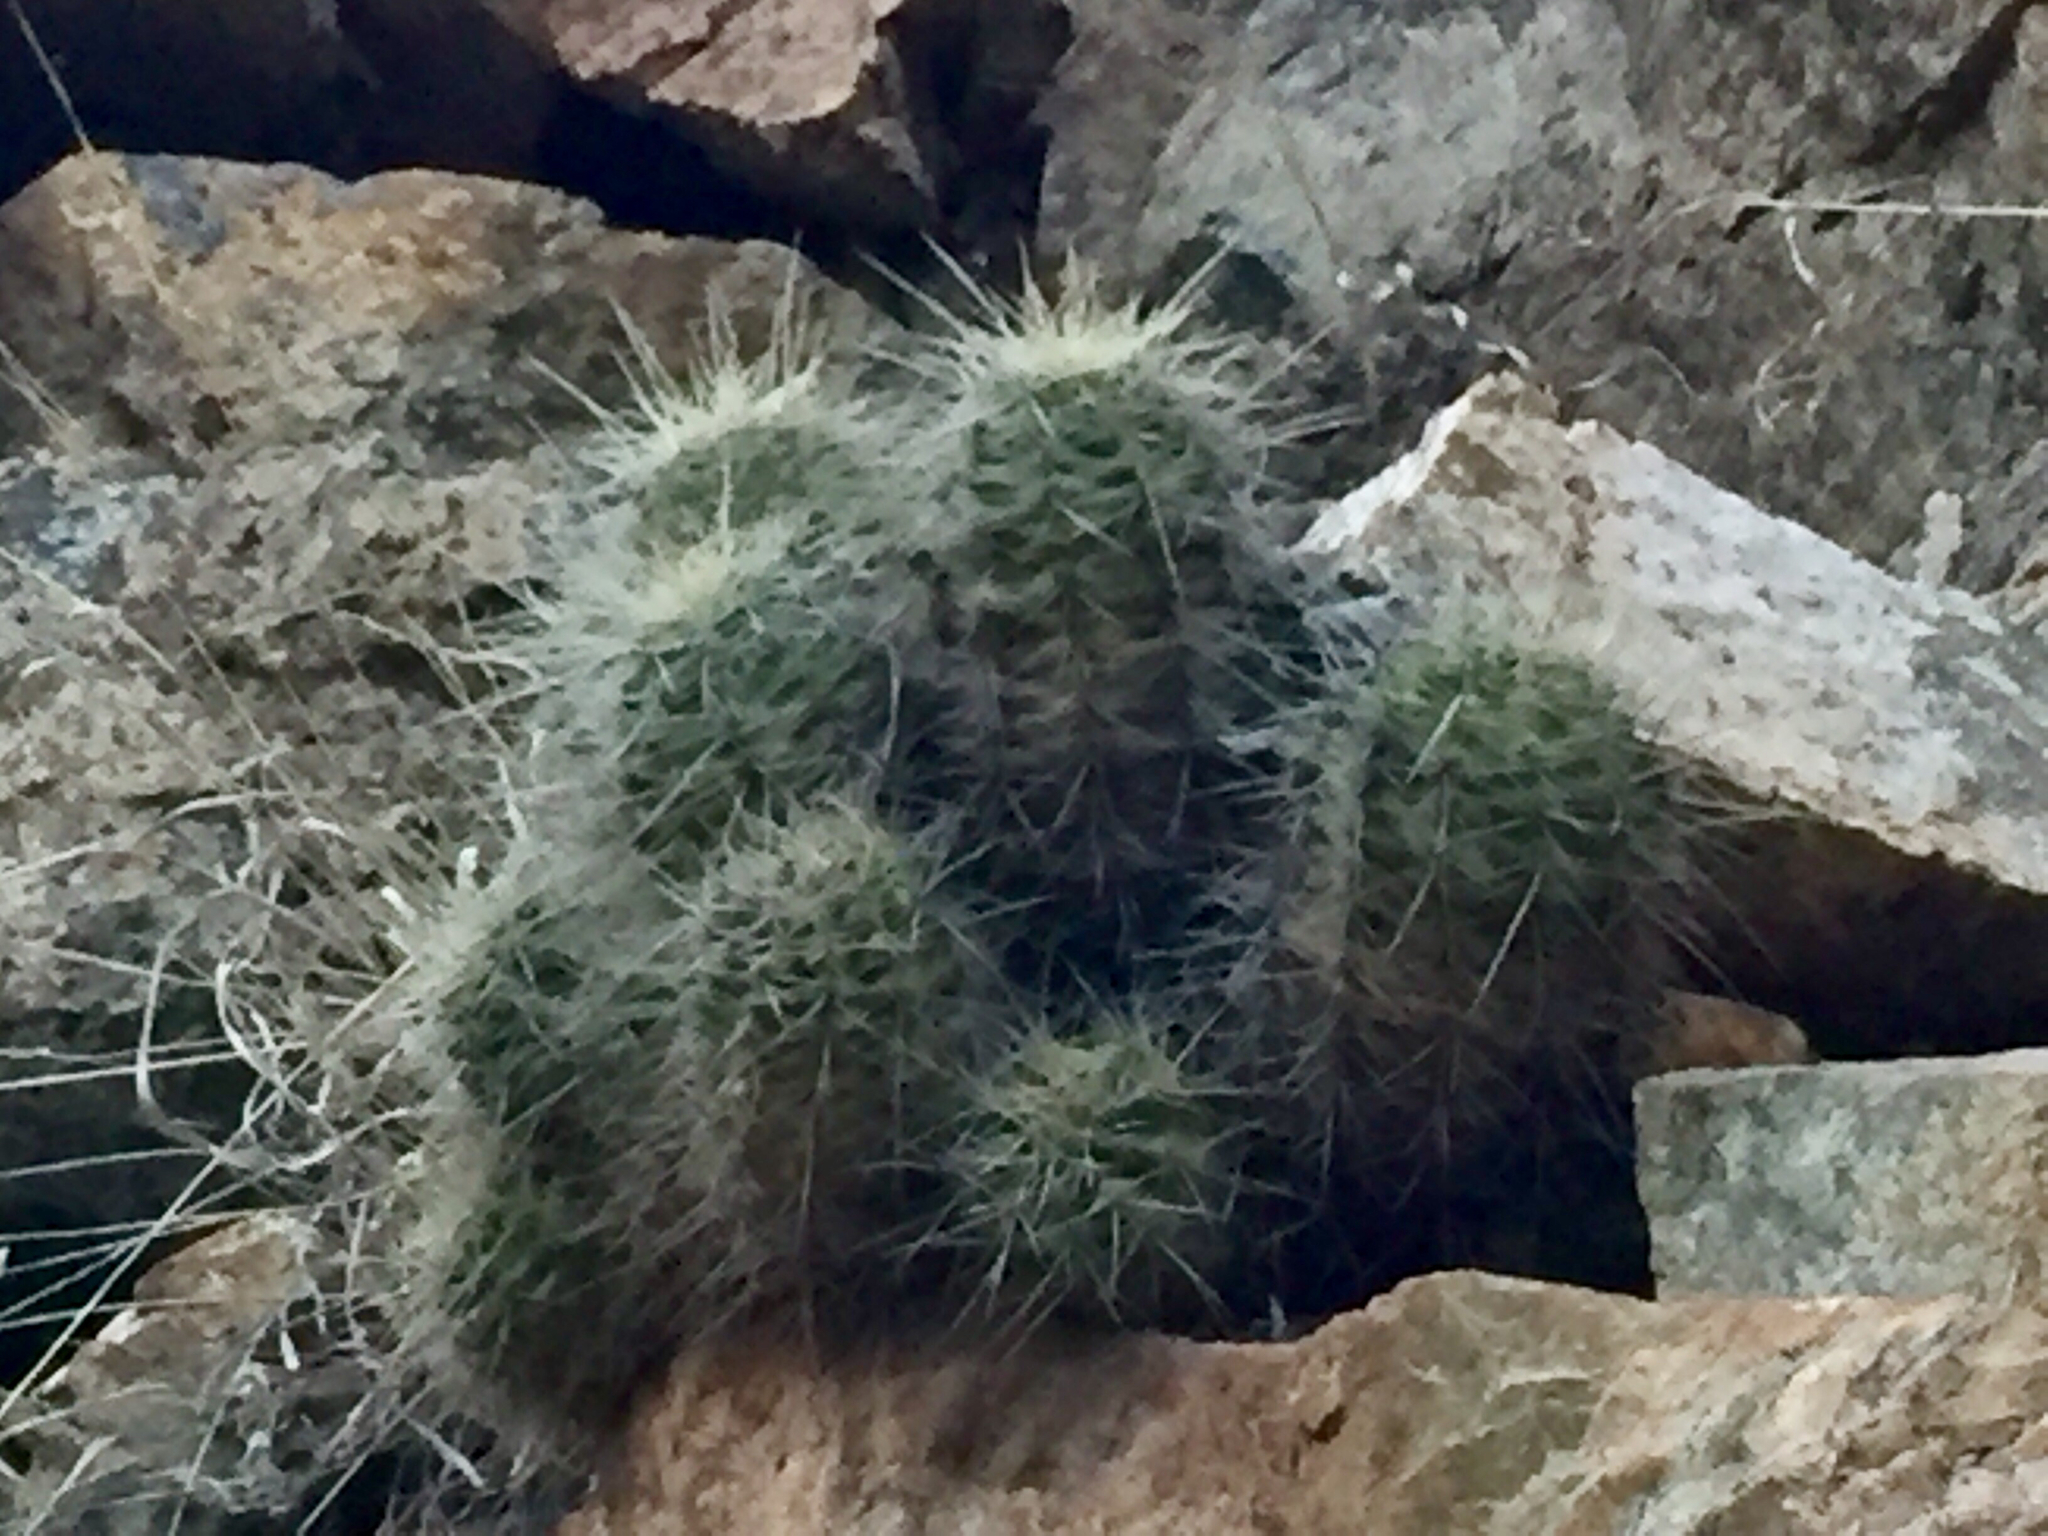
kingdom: Plantae
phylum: Tracheophyta
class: Magnoliopsida
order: Caryophyllales
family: Cactaceae
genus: Echinocereus
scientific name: Echinocereus bakeri
